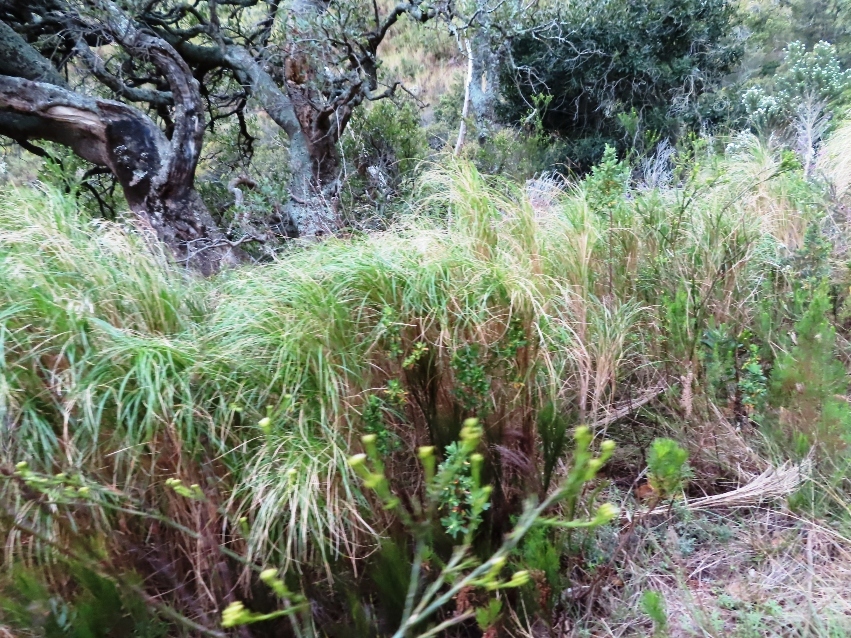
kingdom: Plantae
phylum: Tracheophyta
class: Liliopsida
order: Poales
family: Poaceae
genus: Pentameris
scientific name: Pentameris thuarii
